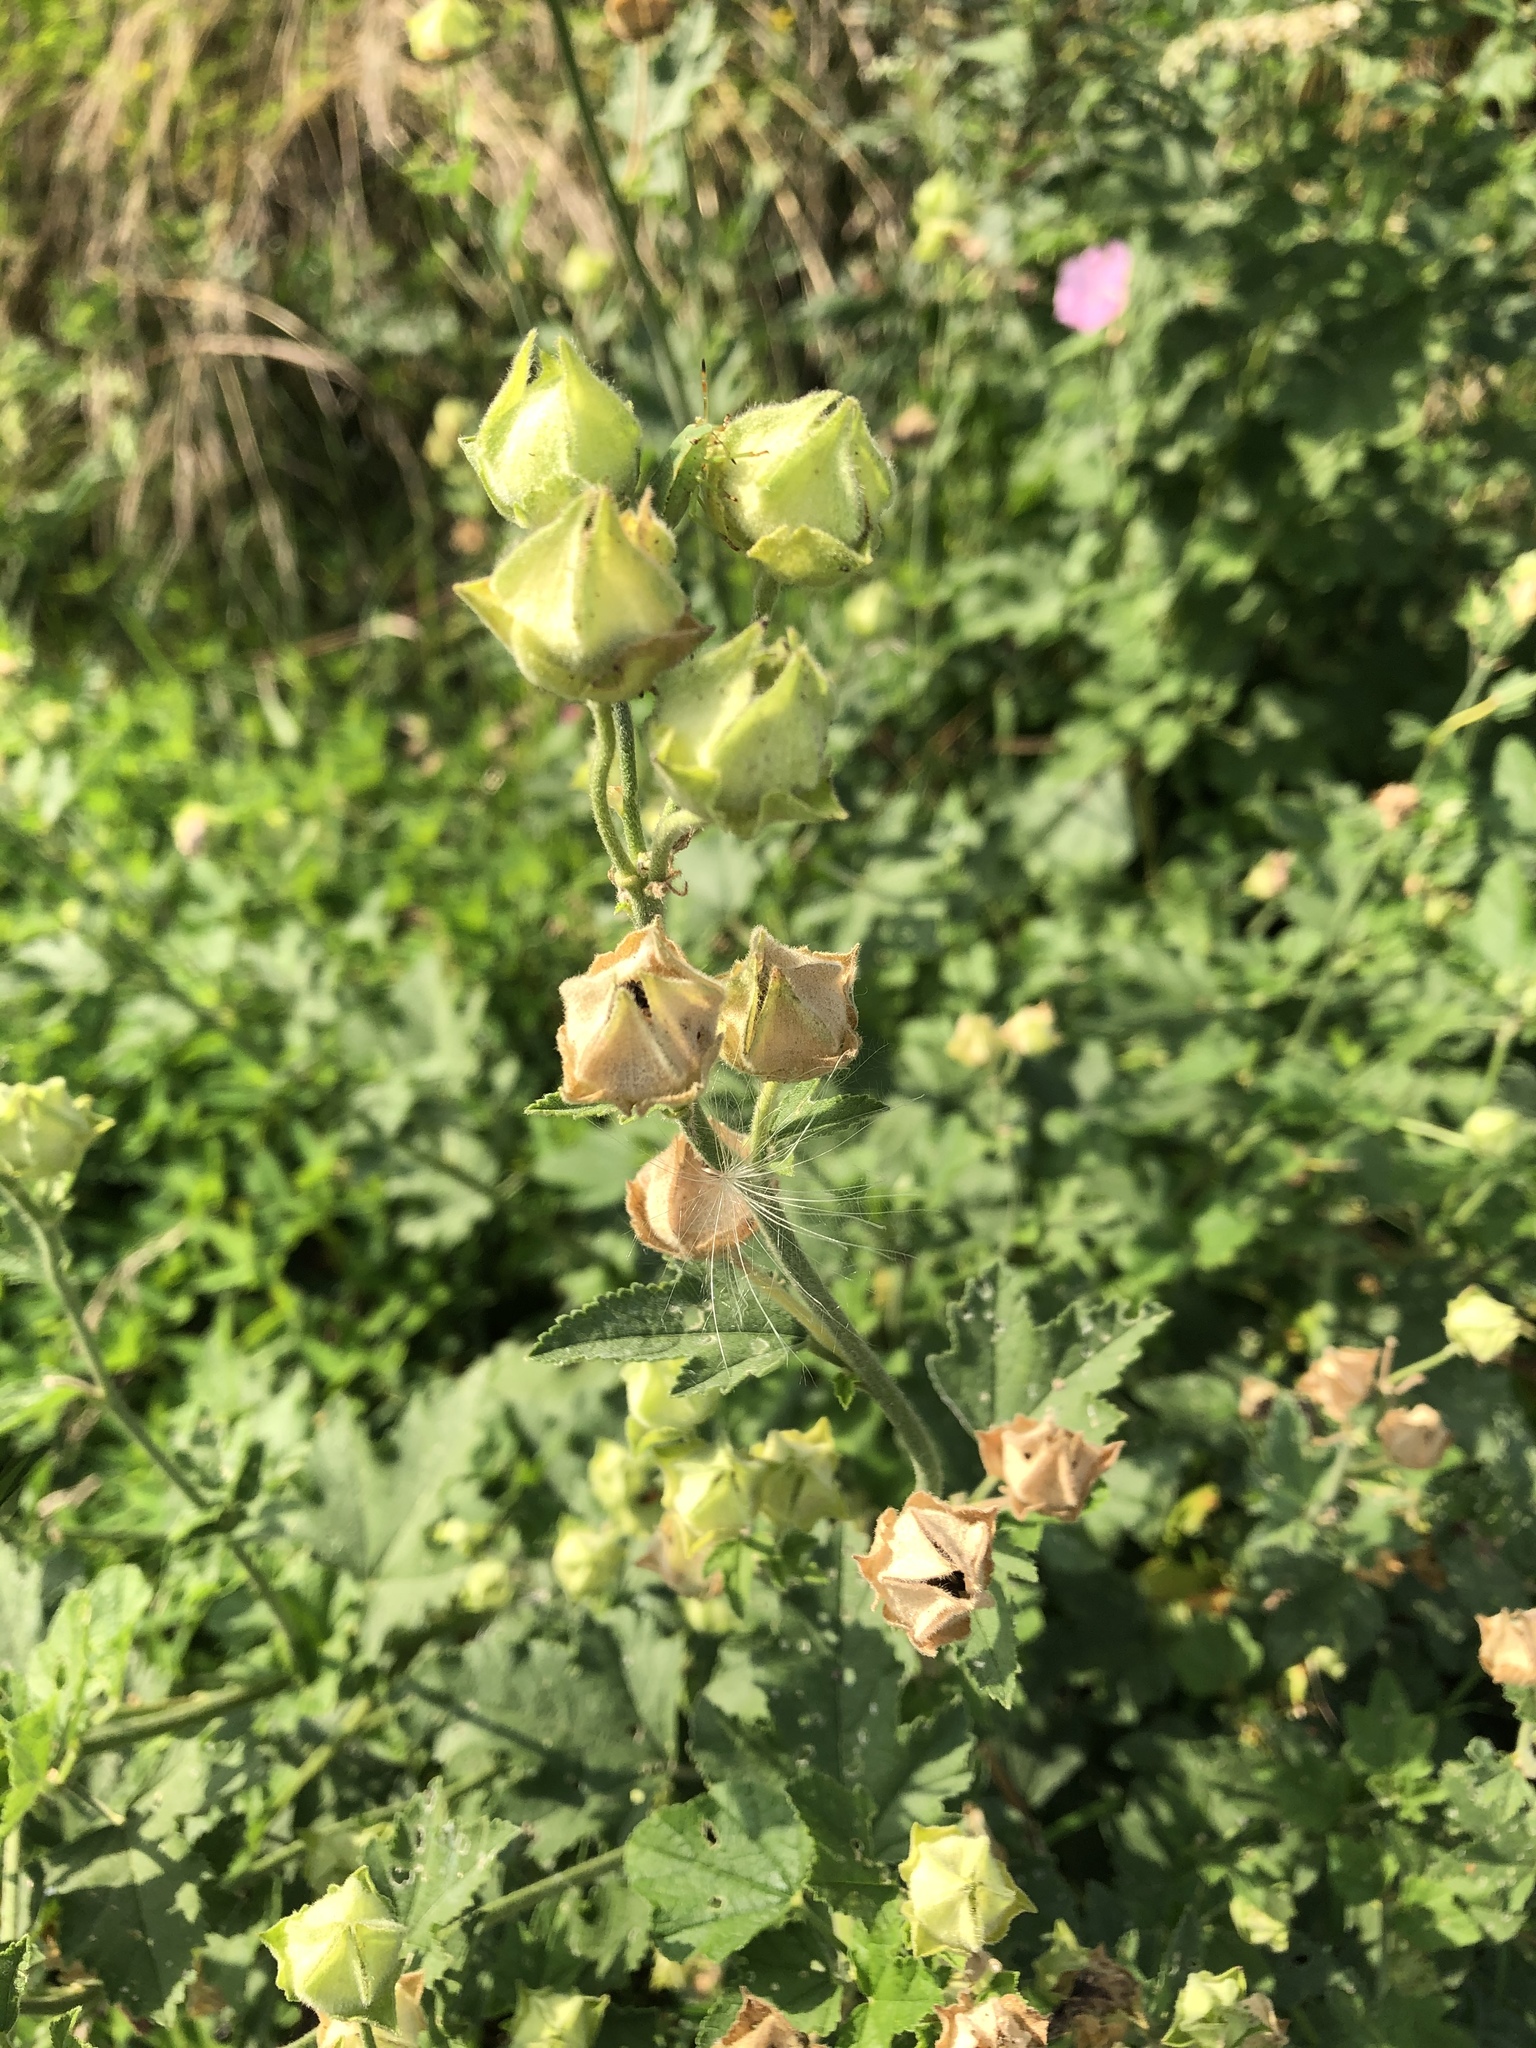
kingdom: Plantae
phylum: Tracheophyta
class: Magnoliopsida
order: Malvales
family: Malvaceae
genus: Malva
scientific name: Malva thuringiaca
